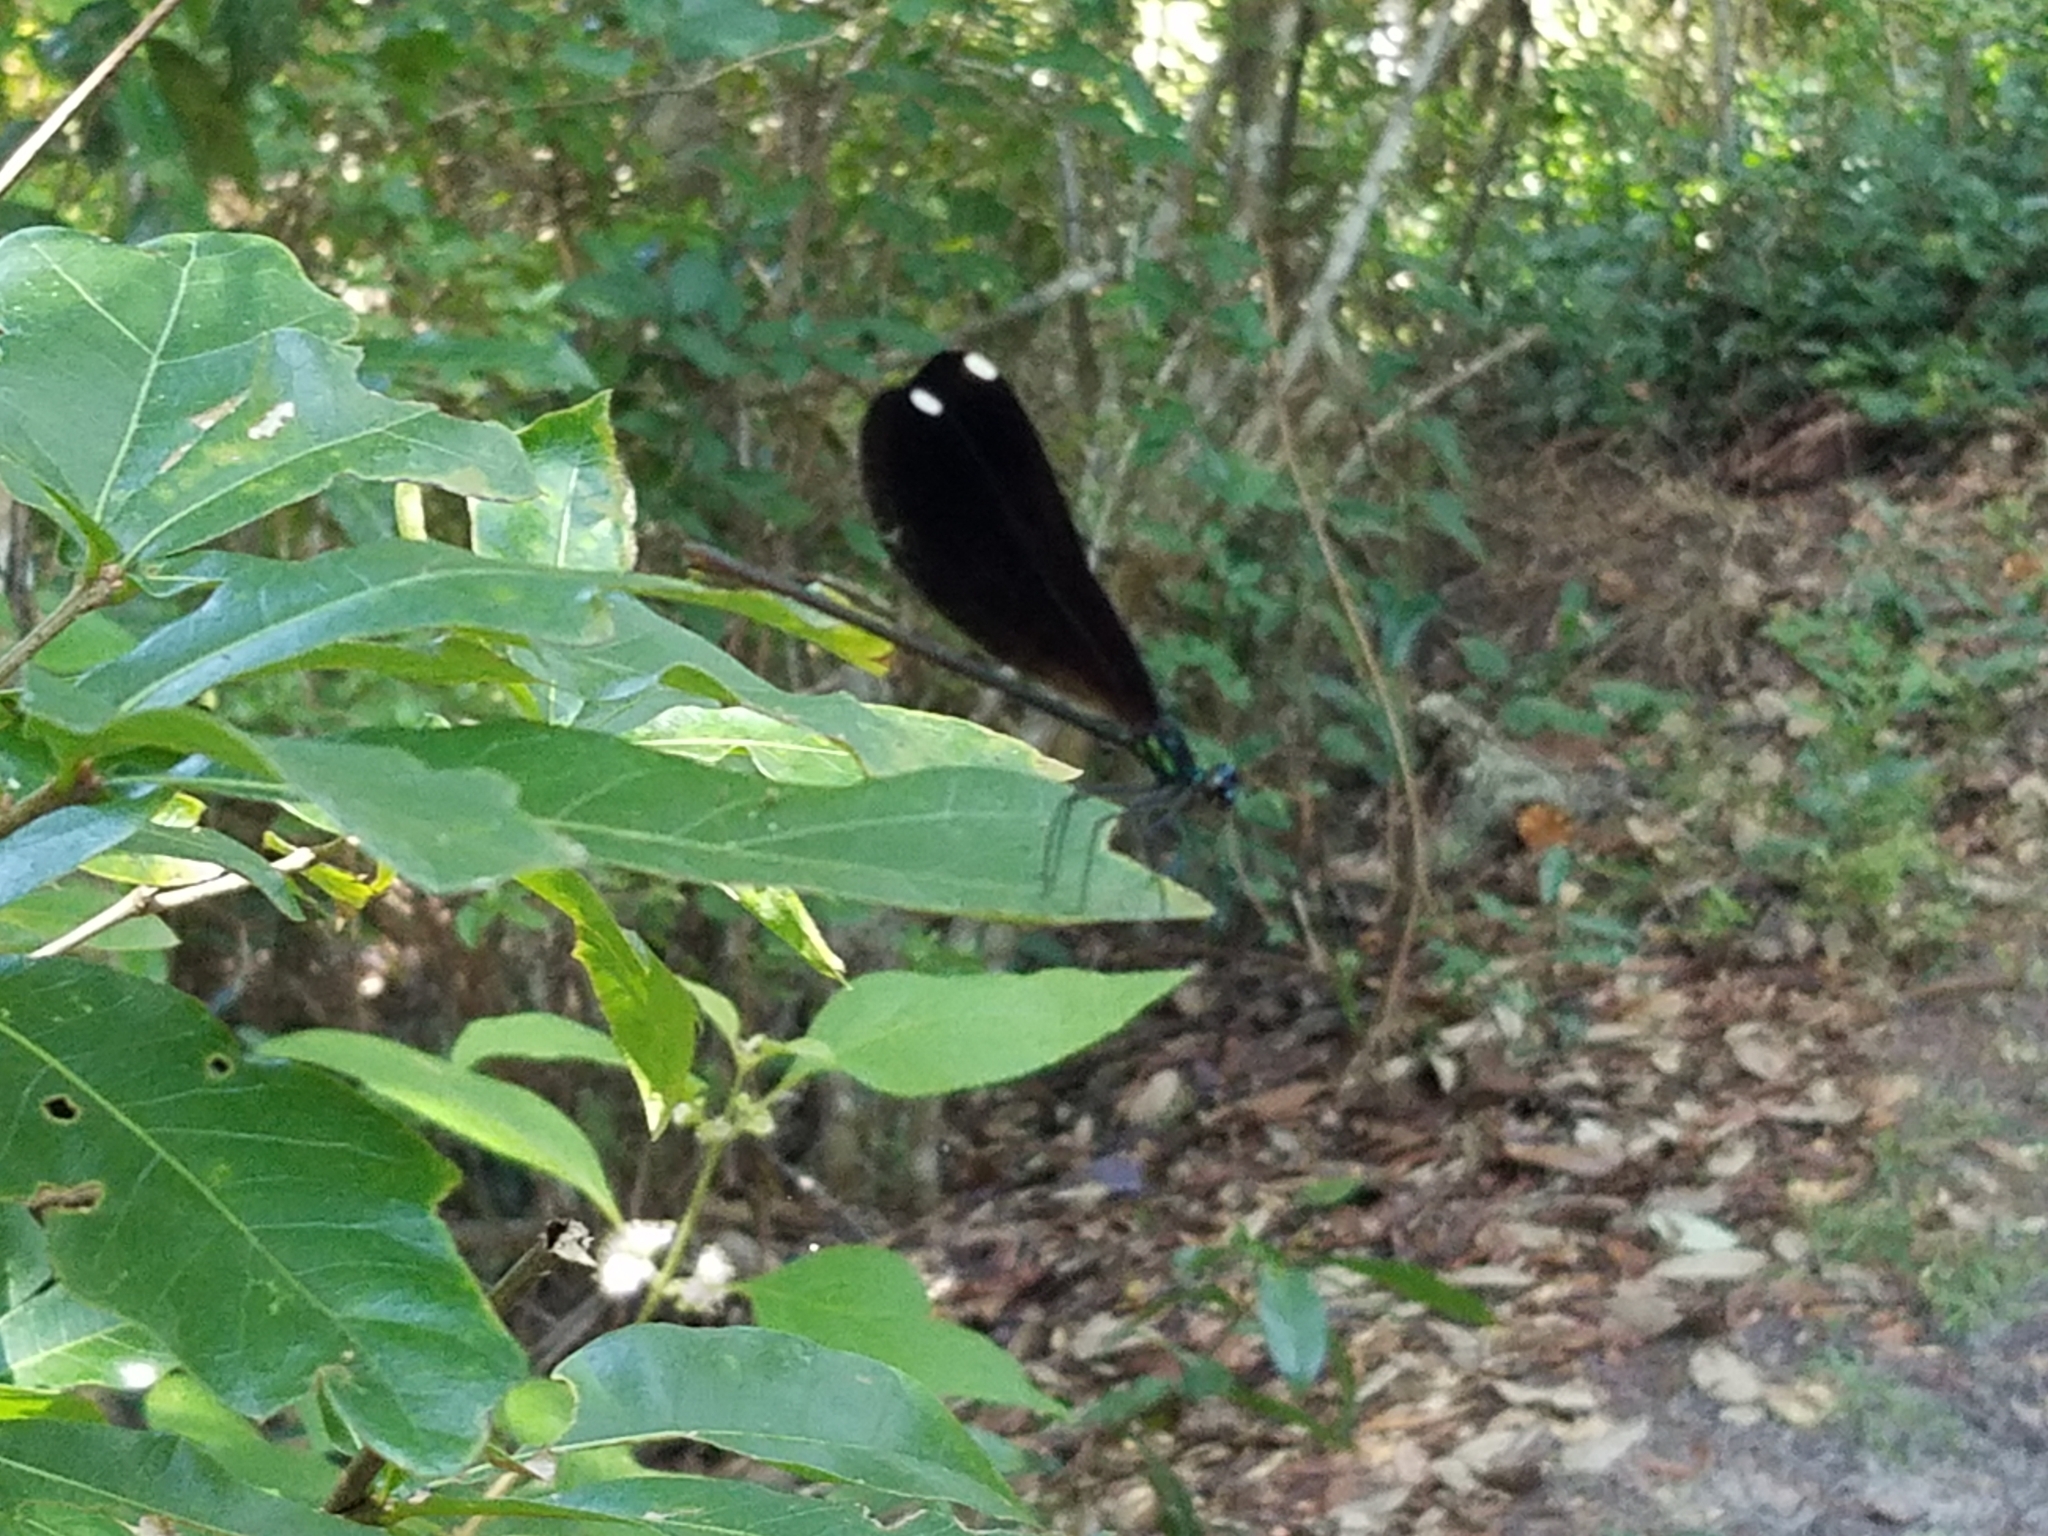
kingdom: Animalia
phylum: Arthropoda
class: Insecta
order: Odonata
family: Calopterygidae
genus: Calopteryx
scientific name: Calopteryx maculata
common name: Ebony jewelwing
